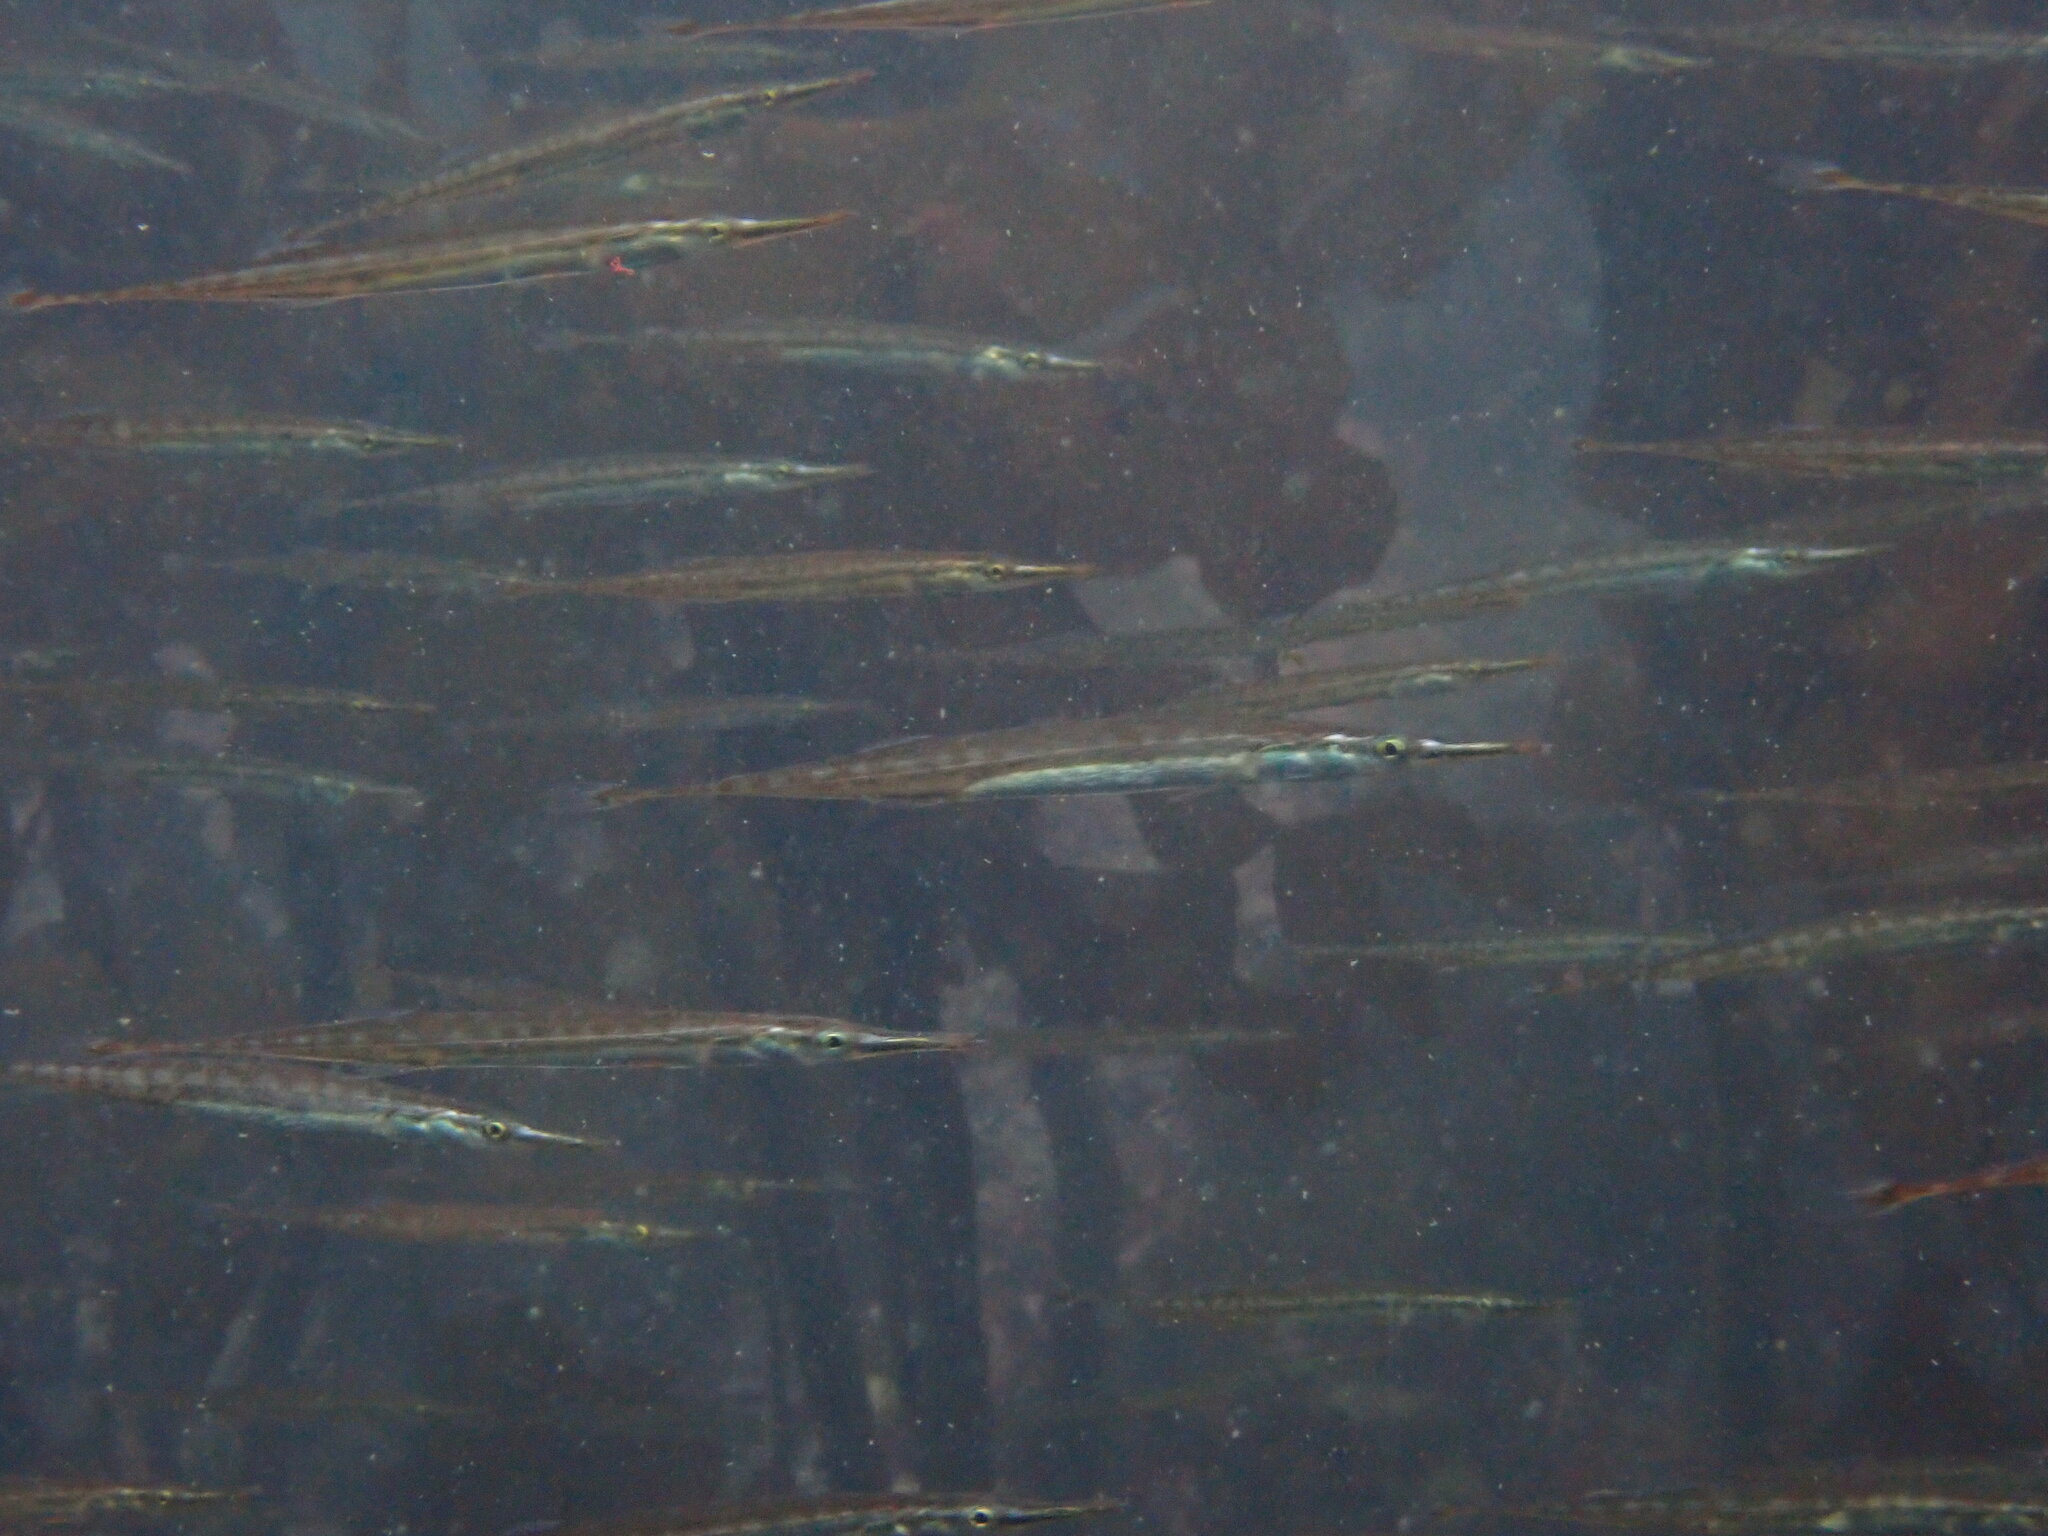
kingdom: Animalia
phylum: Chordata
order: Gasterosteiformes
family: Aulorhynchidae
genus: Aulorhynchus
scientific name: Aulorhynchus flavidus
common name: Tube-snout
